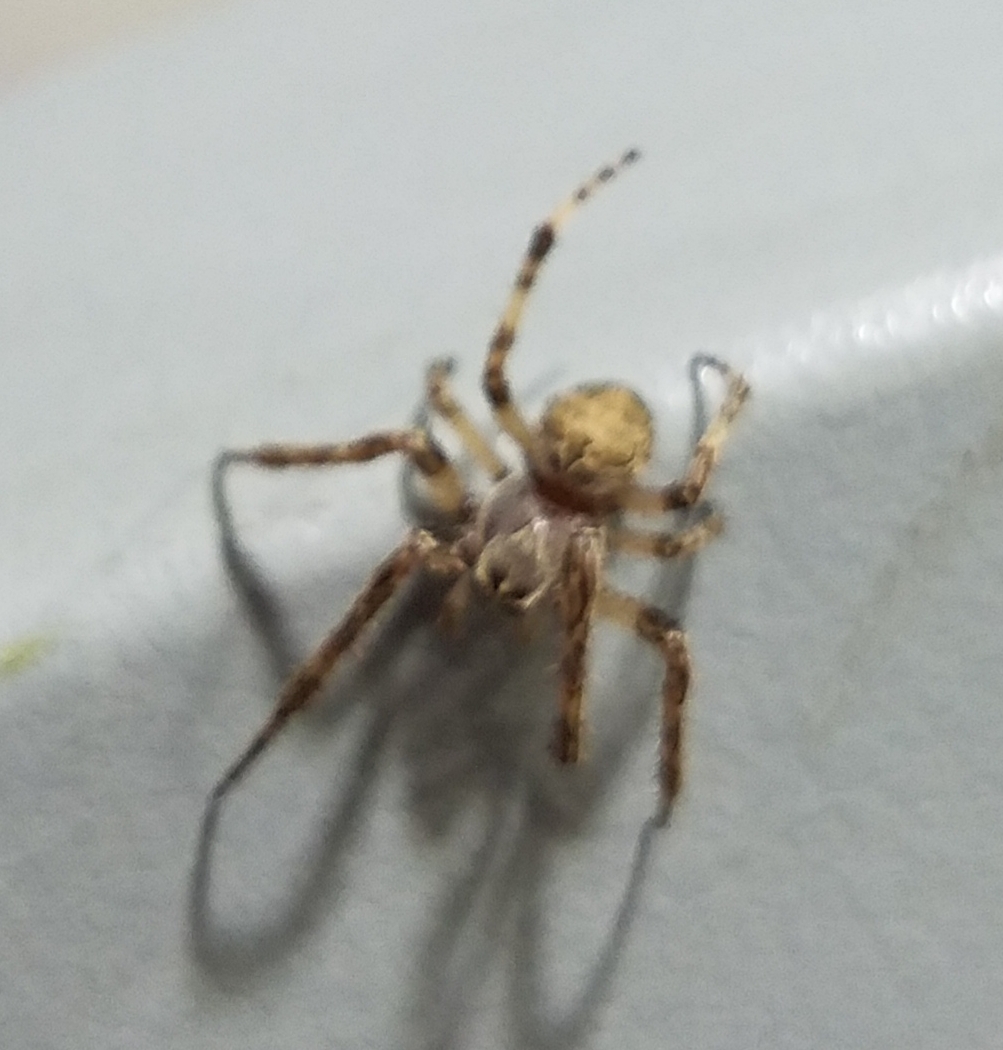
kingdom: Animalia
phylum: Arthropoda
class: Arachnida
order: Araneae
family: Araneidae
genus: Larinioides
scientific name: Larinioides sclopetarius
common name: Bridge orbweaver
